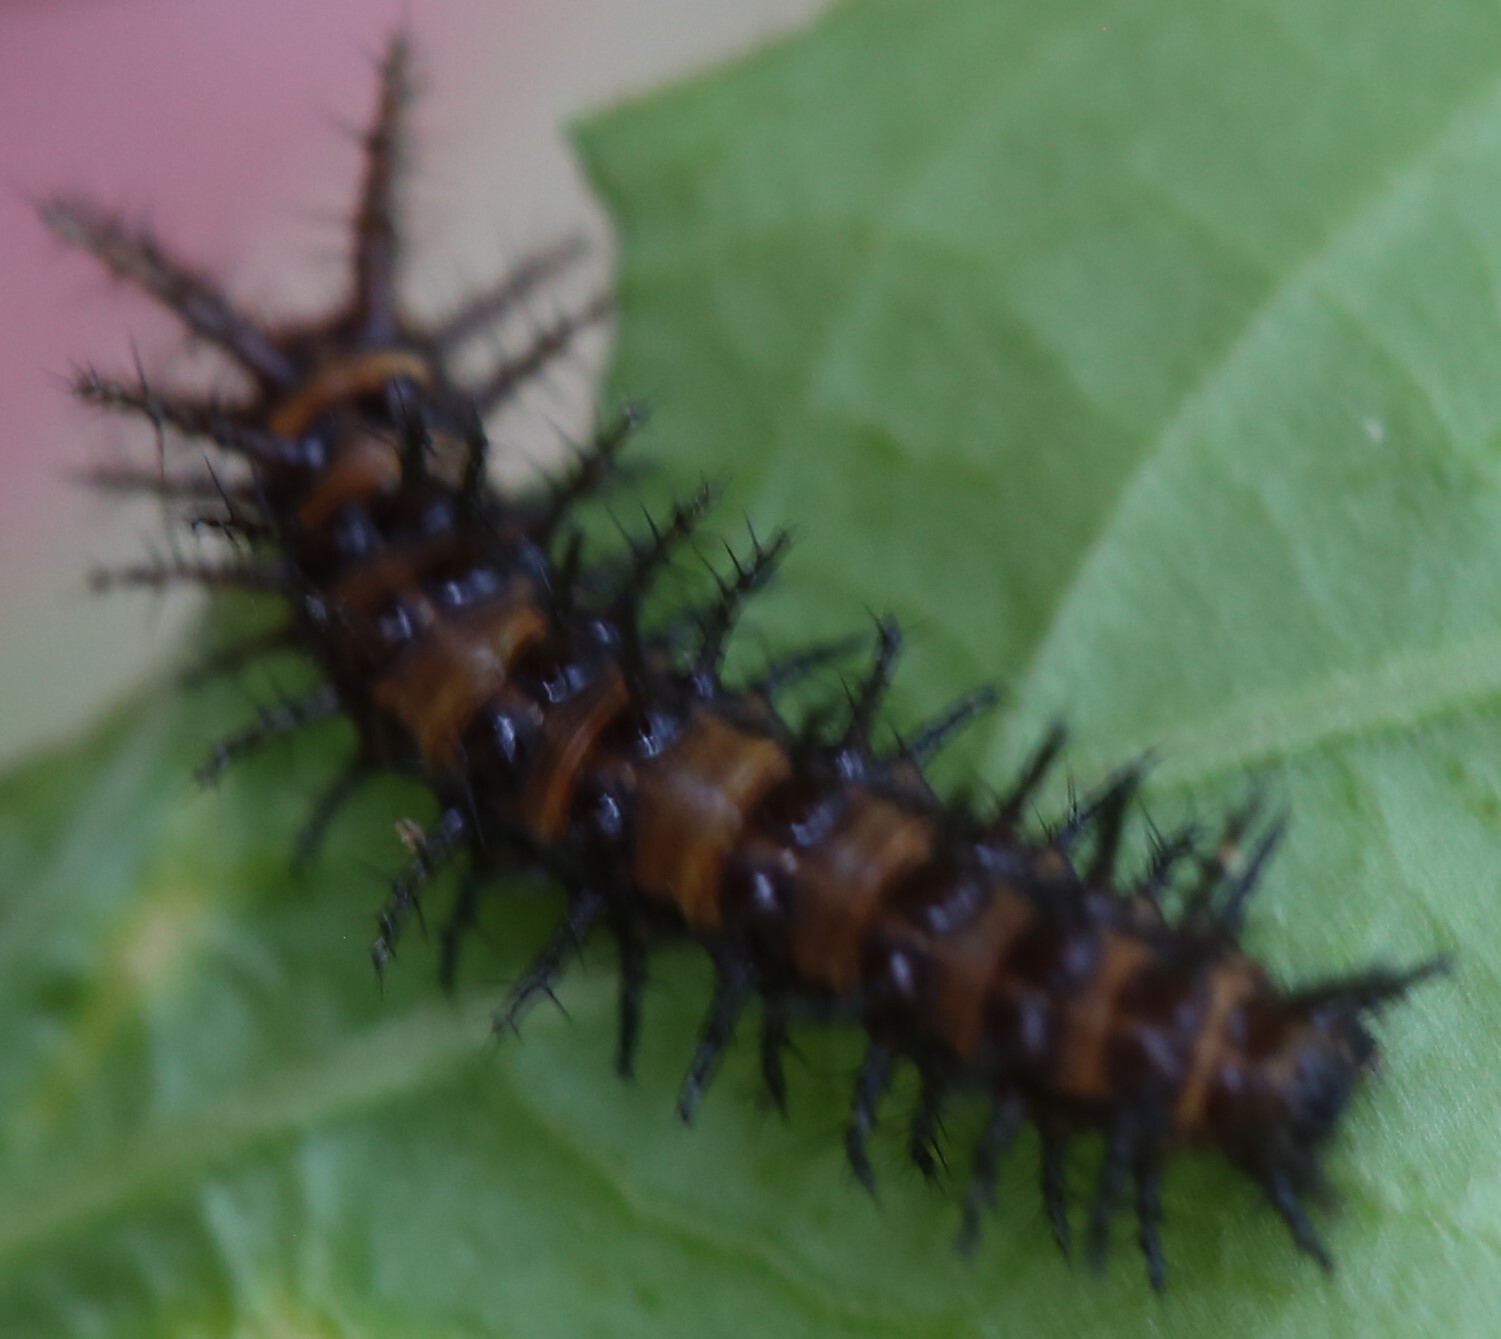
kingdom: Animalia
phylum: Arthropoda
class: Insecta
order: Lepidoptera
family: Nymphalidae
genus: Acraea
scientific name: Acraea andromacha
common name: Glasswing
